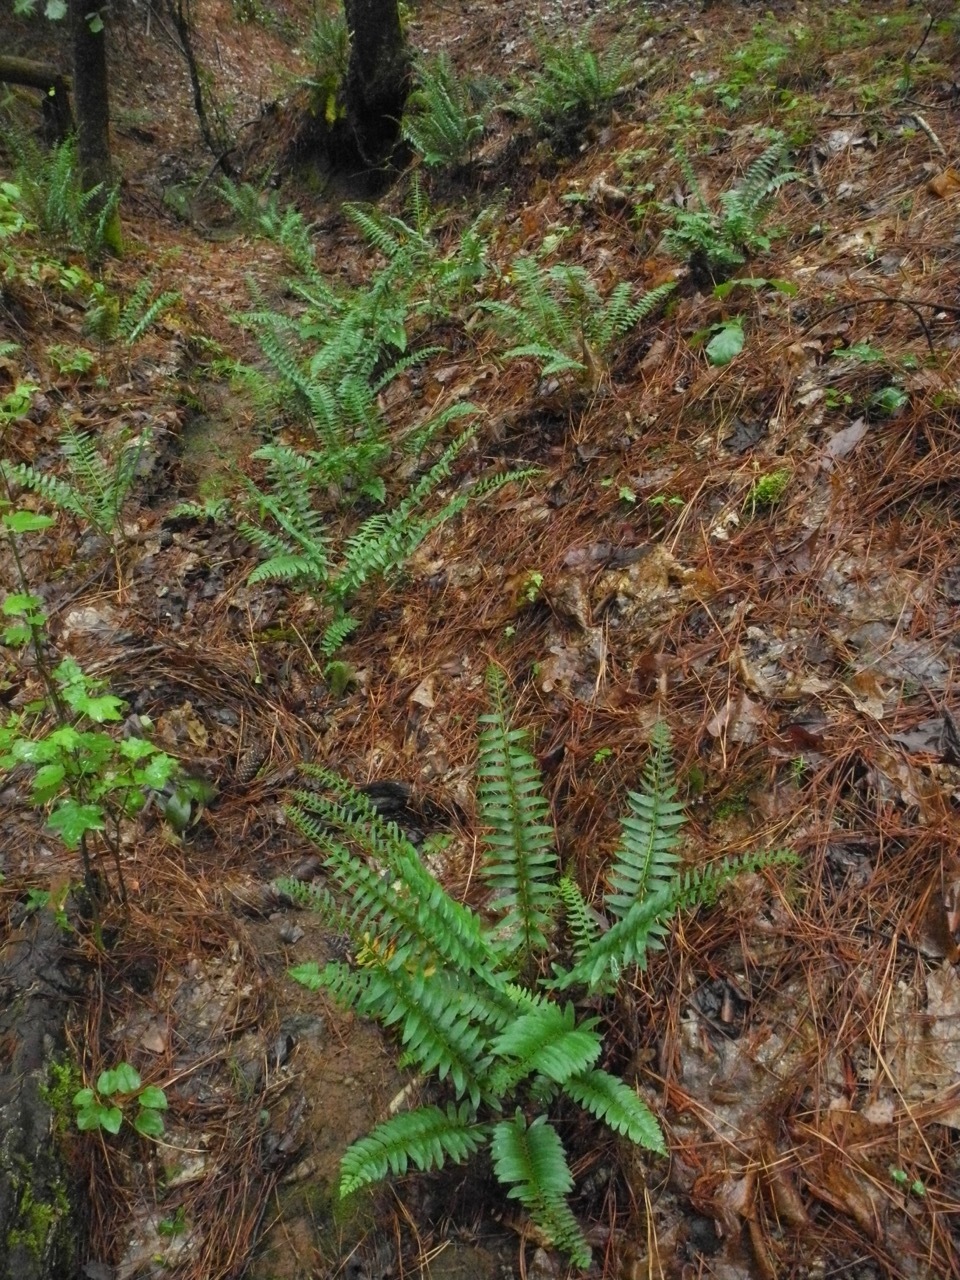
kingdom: Plantae
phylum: Tracheophyta
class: Polypodiopsida
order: Polypodiales
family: Dryopteridaceae
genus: Polystichum
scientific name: Polystichum acrostichoides
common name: Christmas fern
